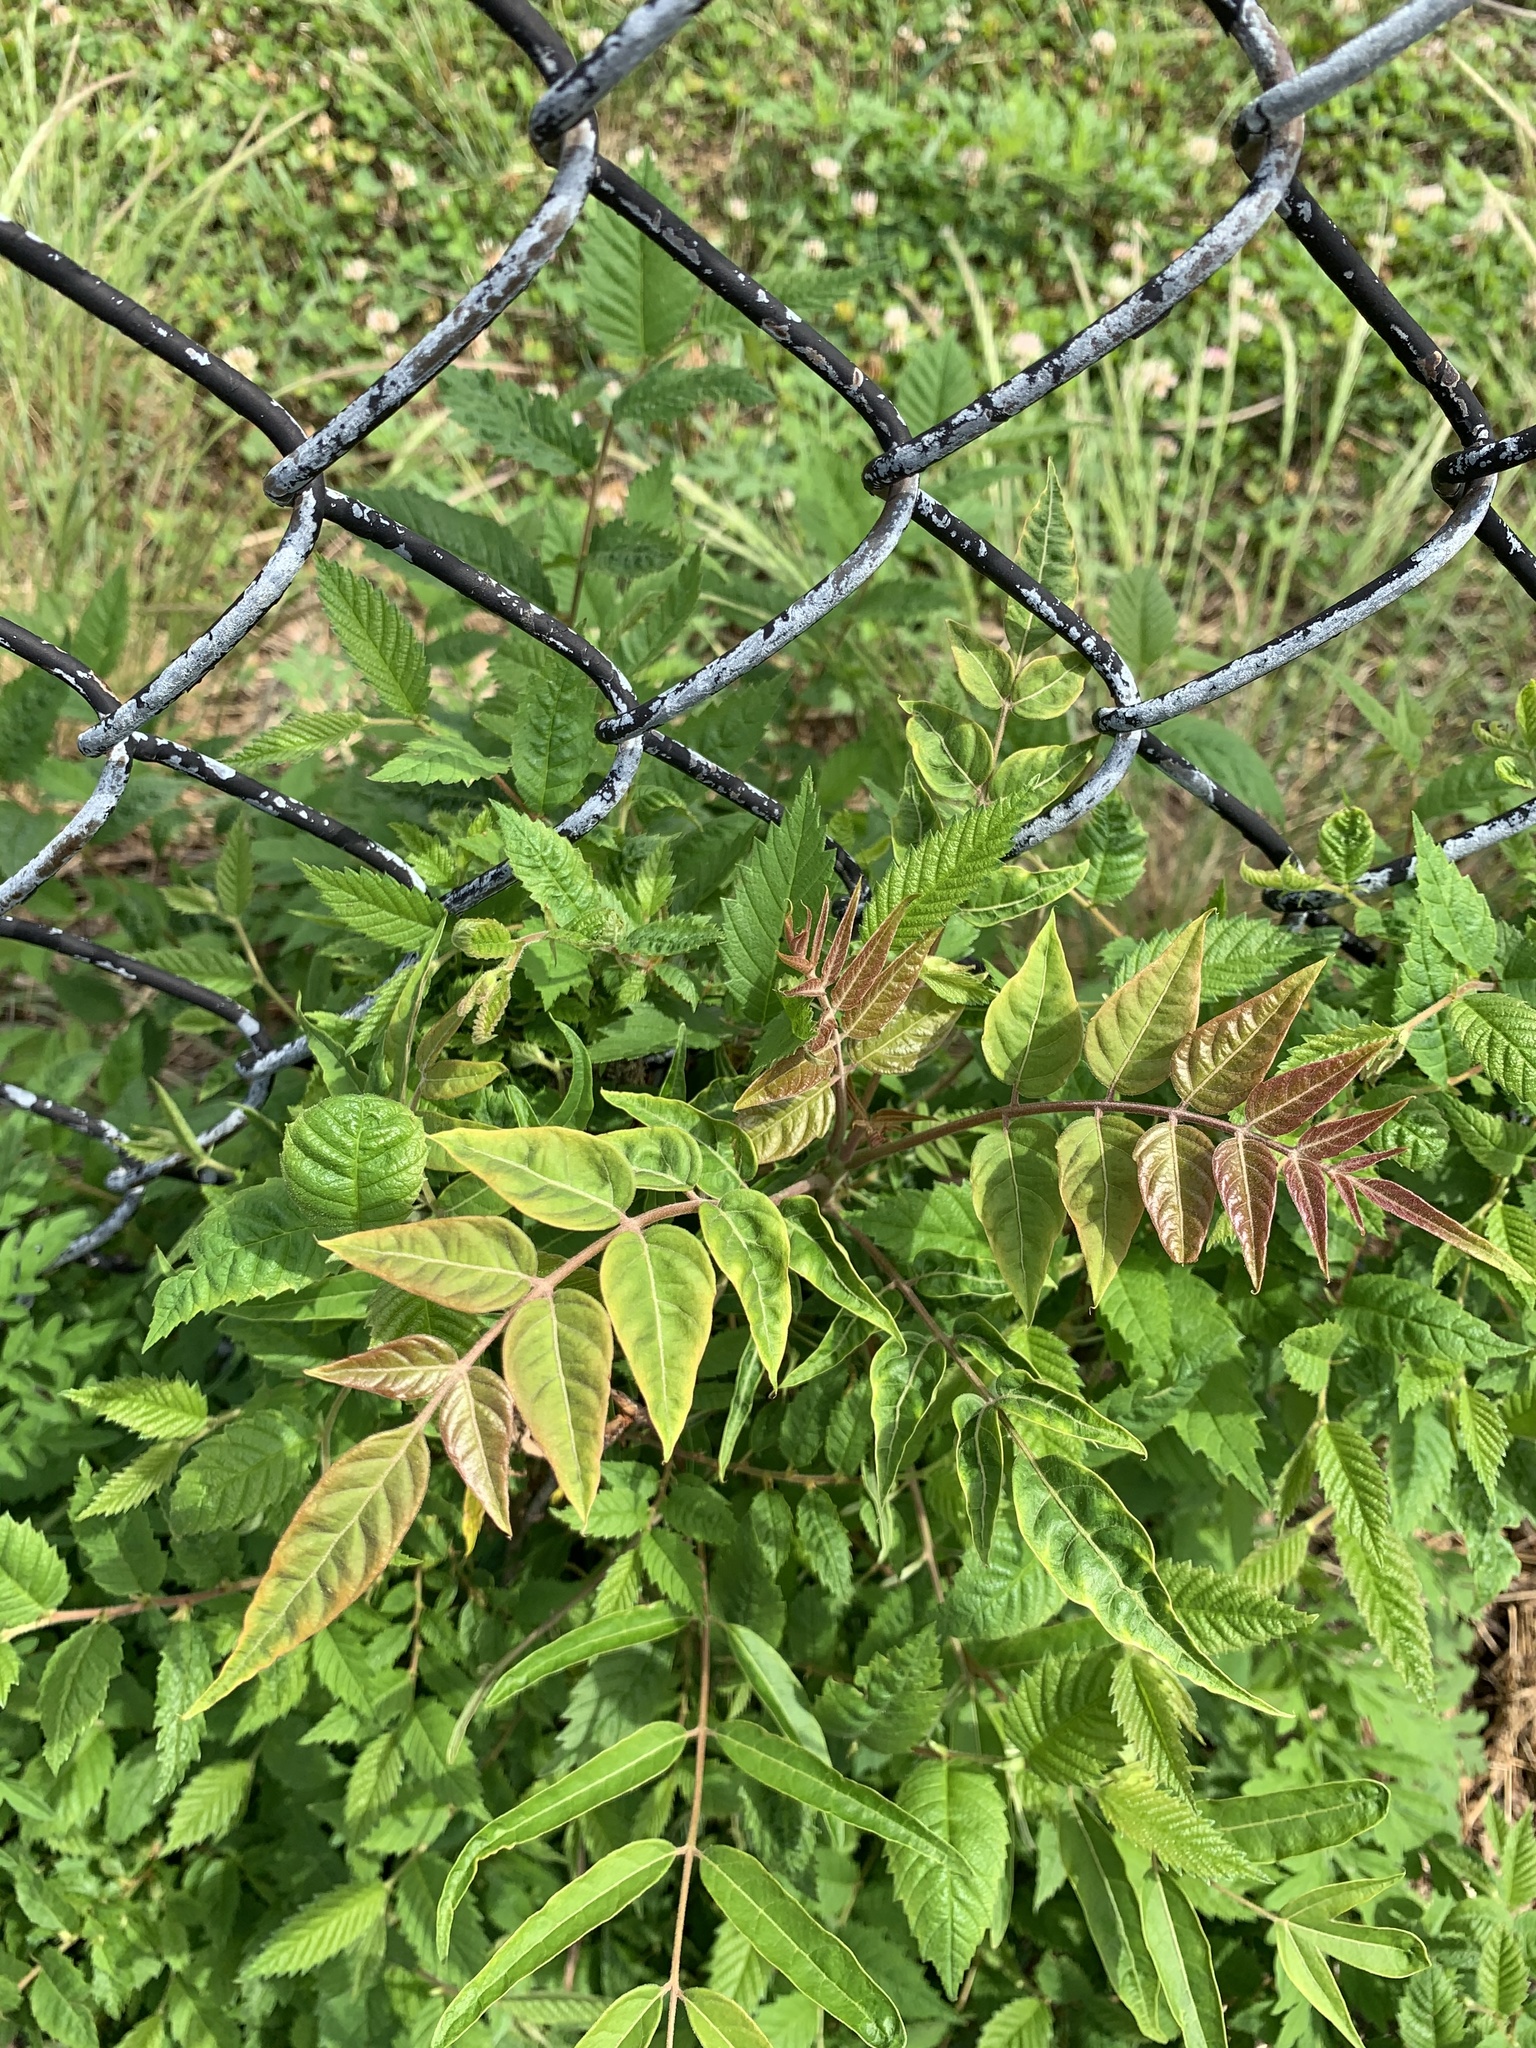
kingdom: Plantae
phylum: Tracheophyta
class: Magnoliopsida
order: Sapindales
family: Simaroubaceae
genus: Ailanthus
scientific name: Ailanthus altissima
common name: Tree-of-heaven
